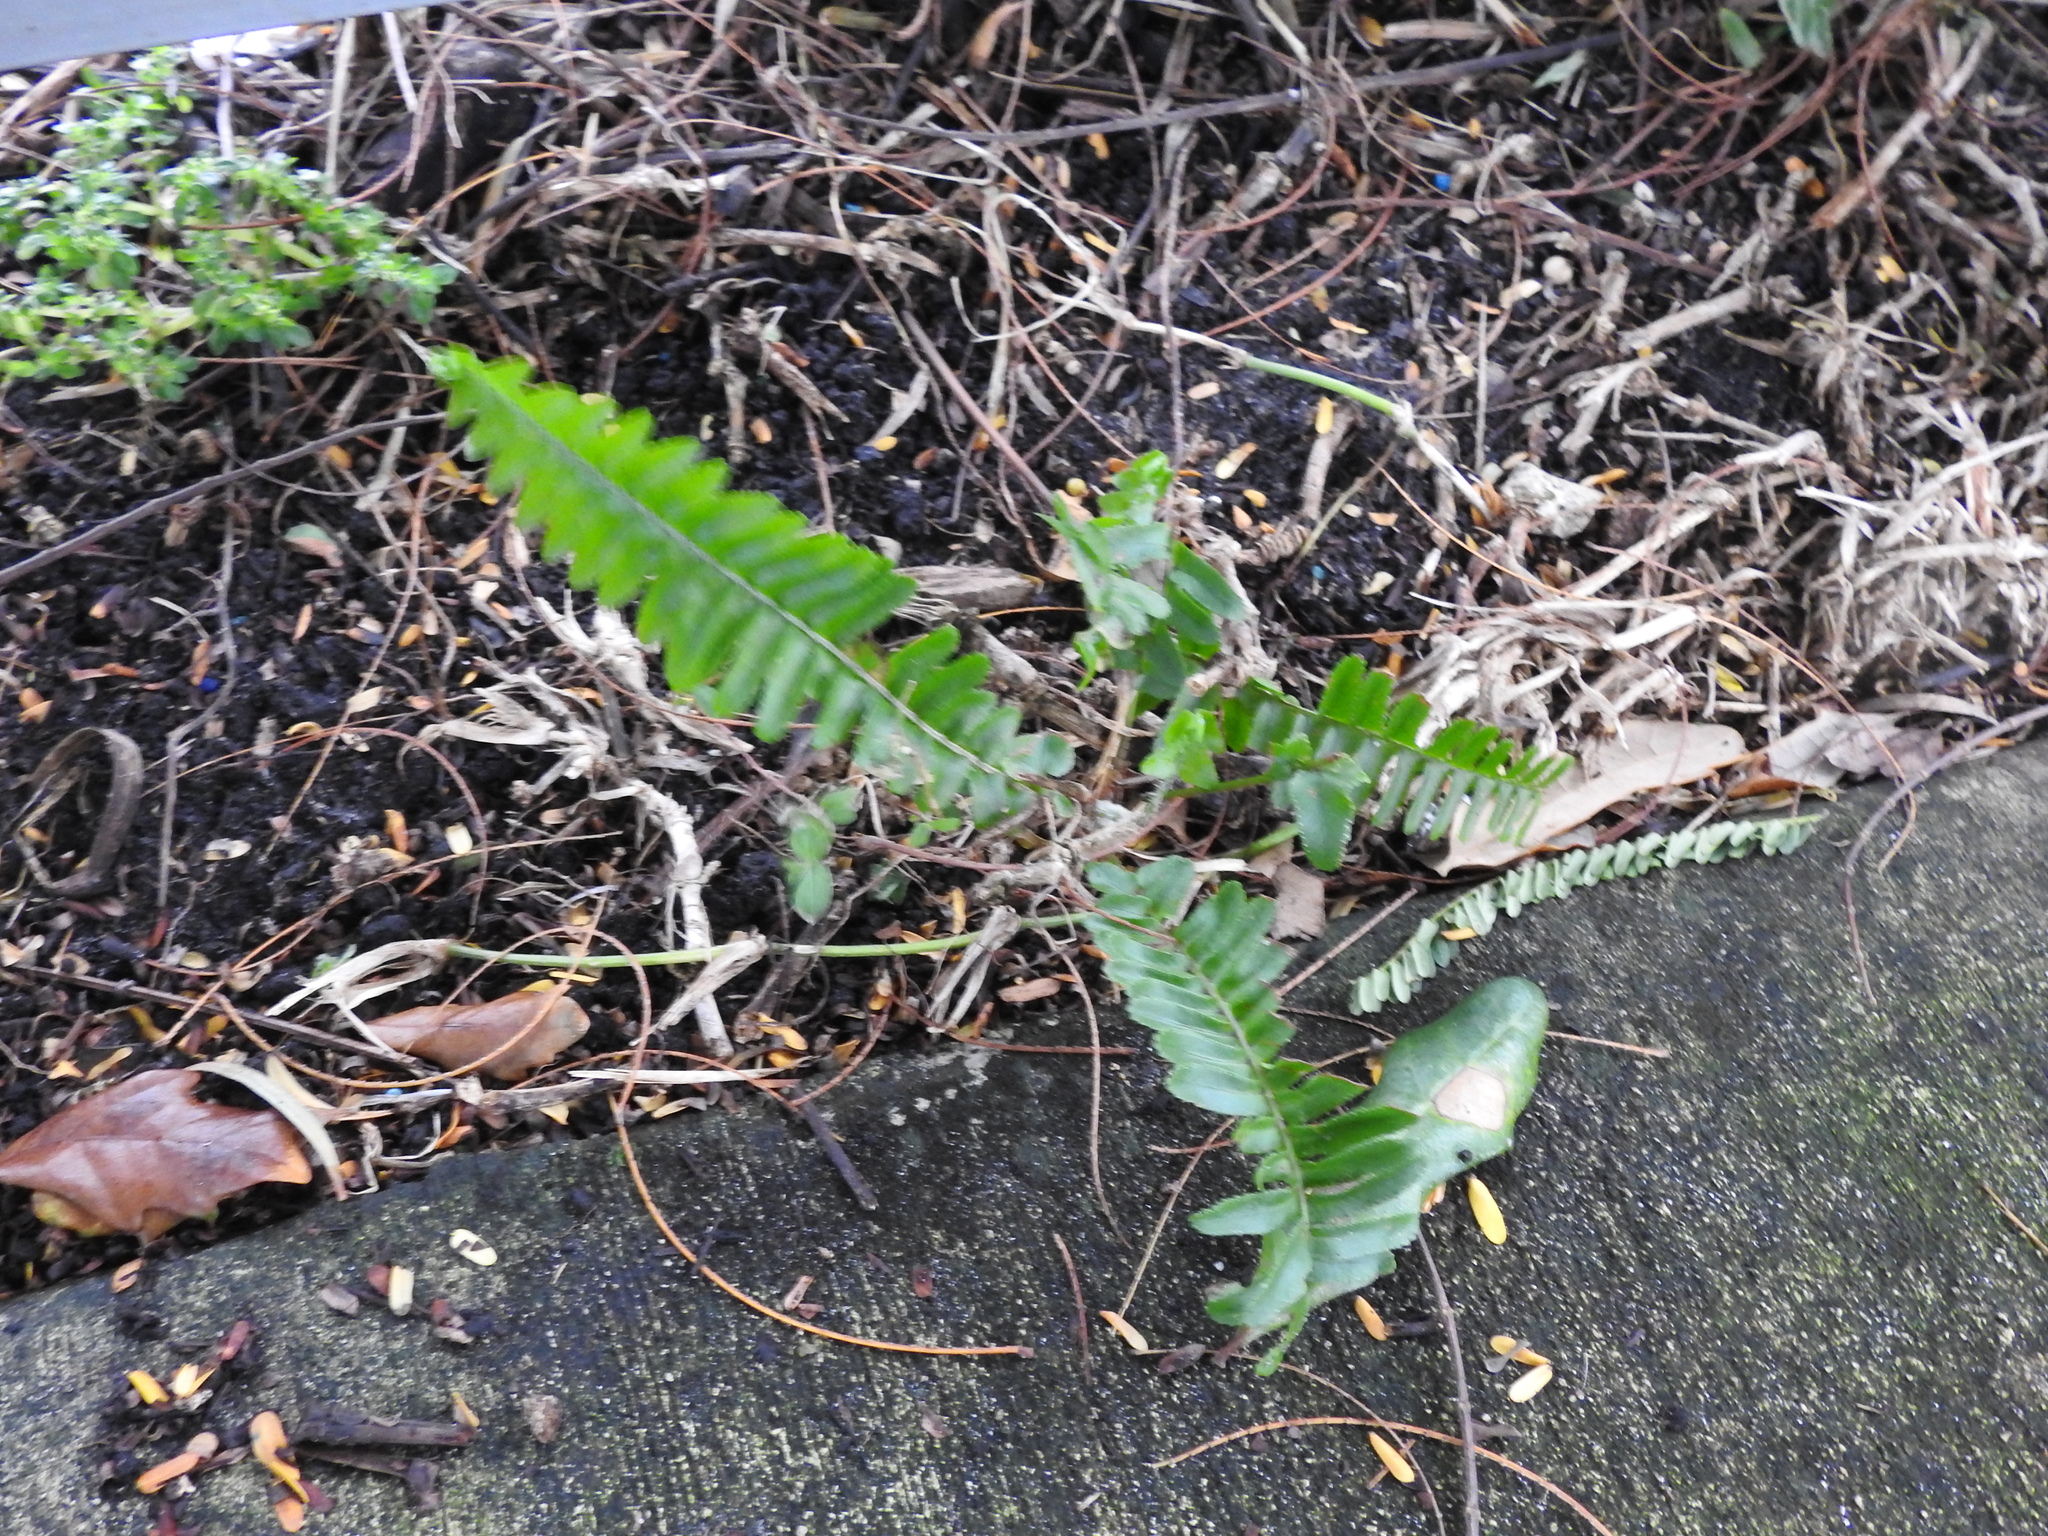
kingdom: Plantae
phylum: Tracheophyta
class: Polypodiopsida
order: Polypodiales
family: Nephrolepidaceae
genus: Nephrolepis
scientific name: Nephrolepis cordifolia
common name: Narrow swordfern
